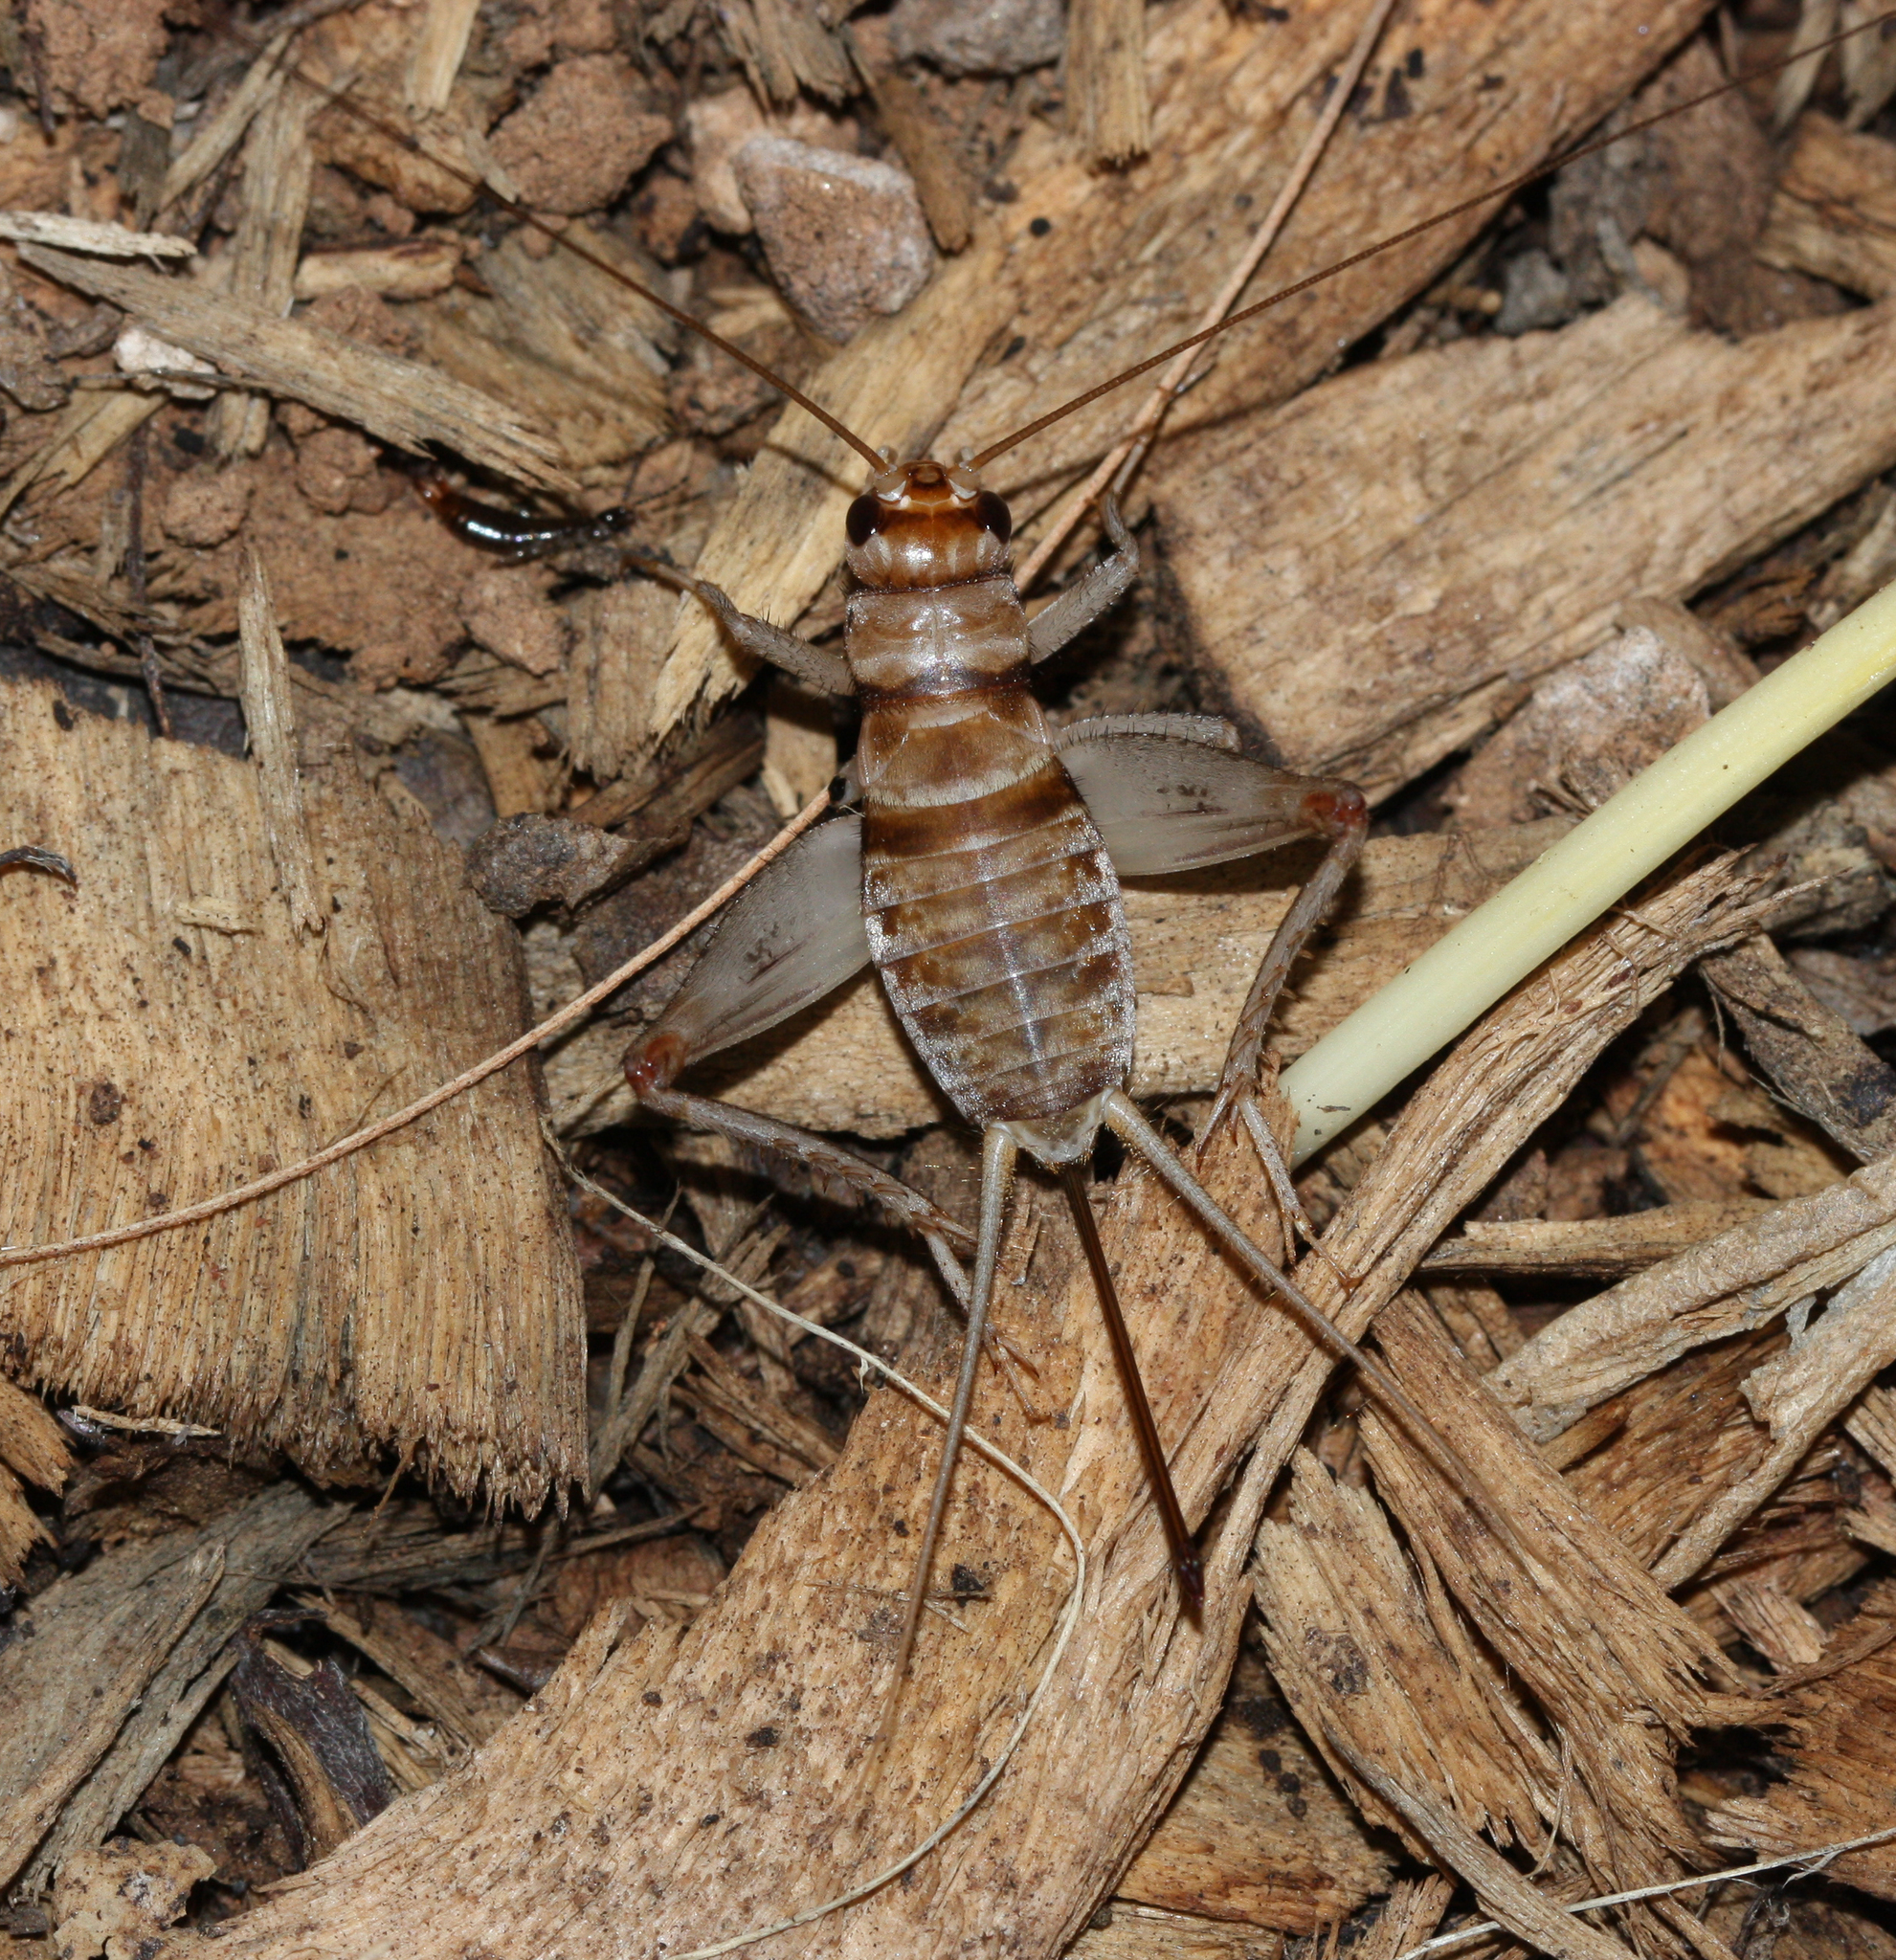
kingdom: Animalia
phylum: Arthropoda
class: Insecta
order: Orthoptera
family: Gryllidae
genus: Gryllodes
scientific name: Gryllodes sigillatus
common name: Tropical house cricket
